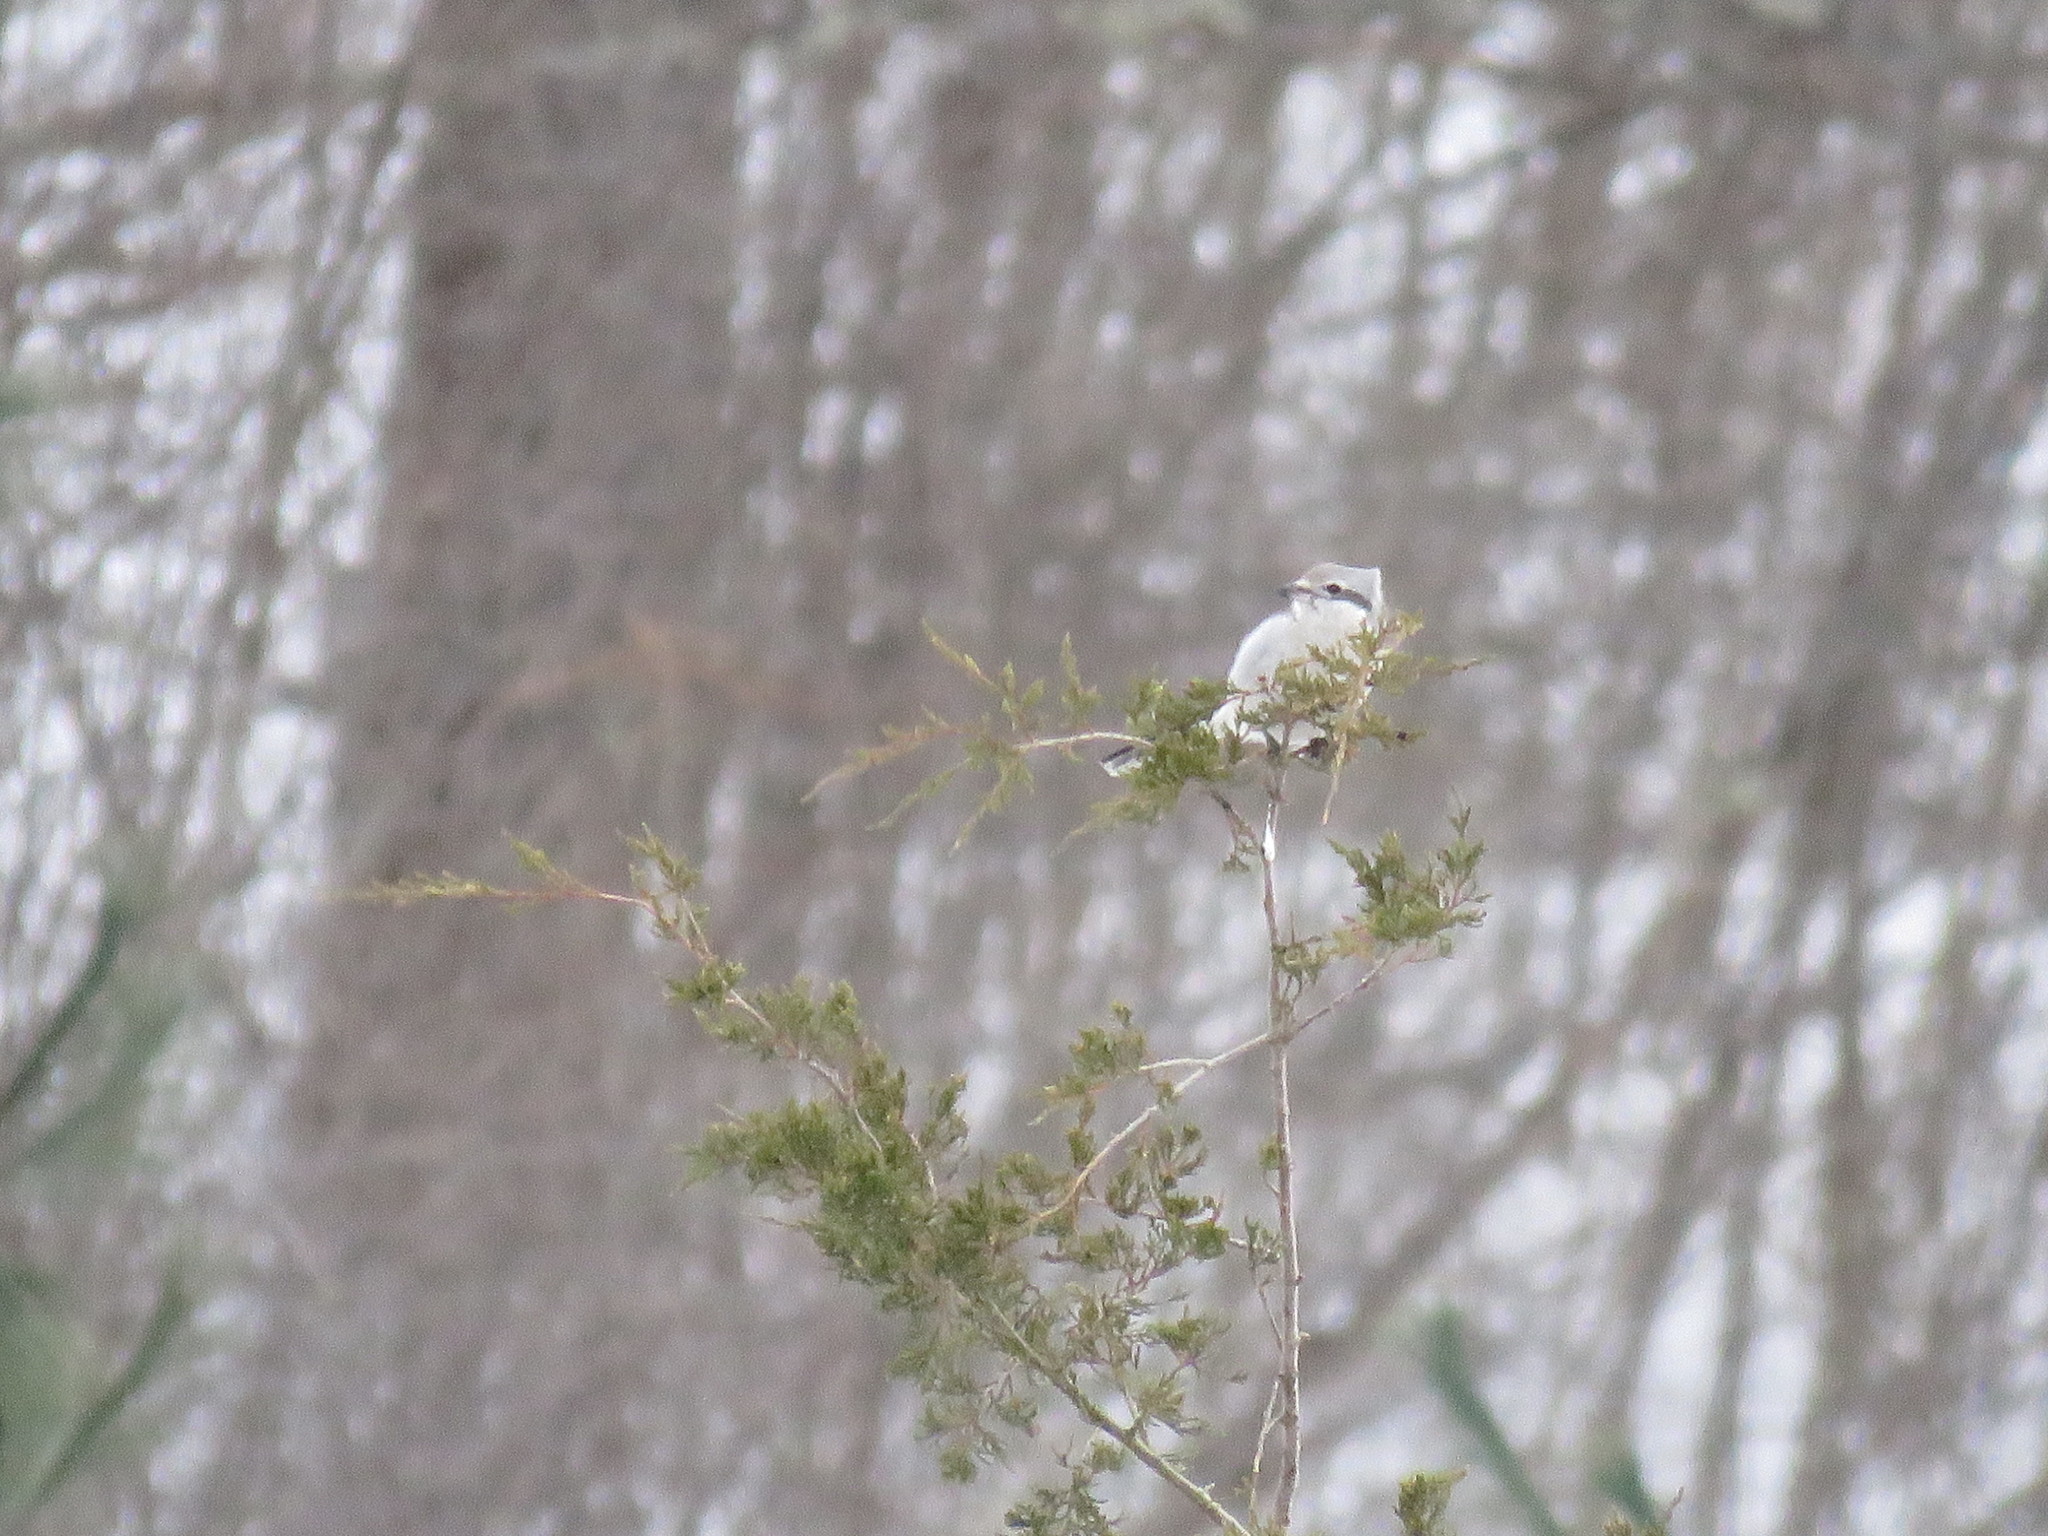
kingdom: Animalia
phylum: Chordata
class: Aves
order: Passeriformes
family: Laniidae
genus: Lanius
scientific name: Lanius borealis
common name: Northern shrike
